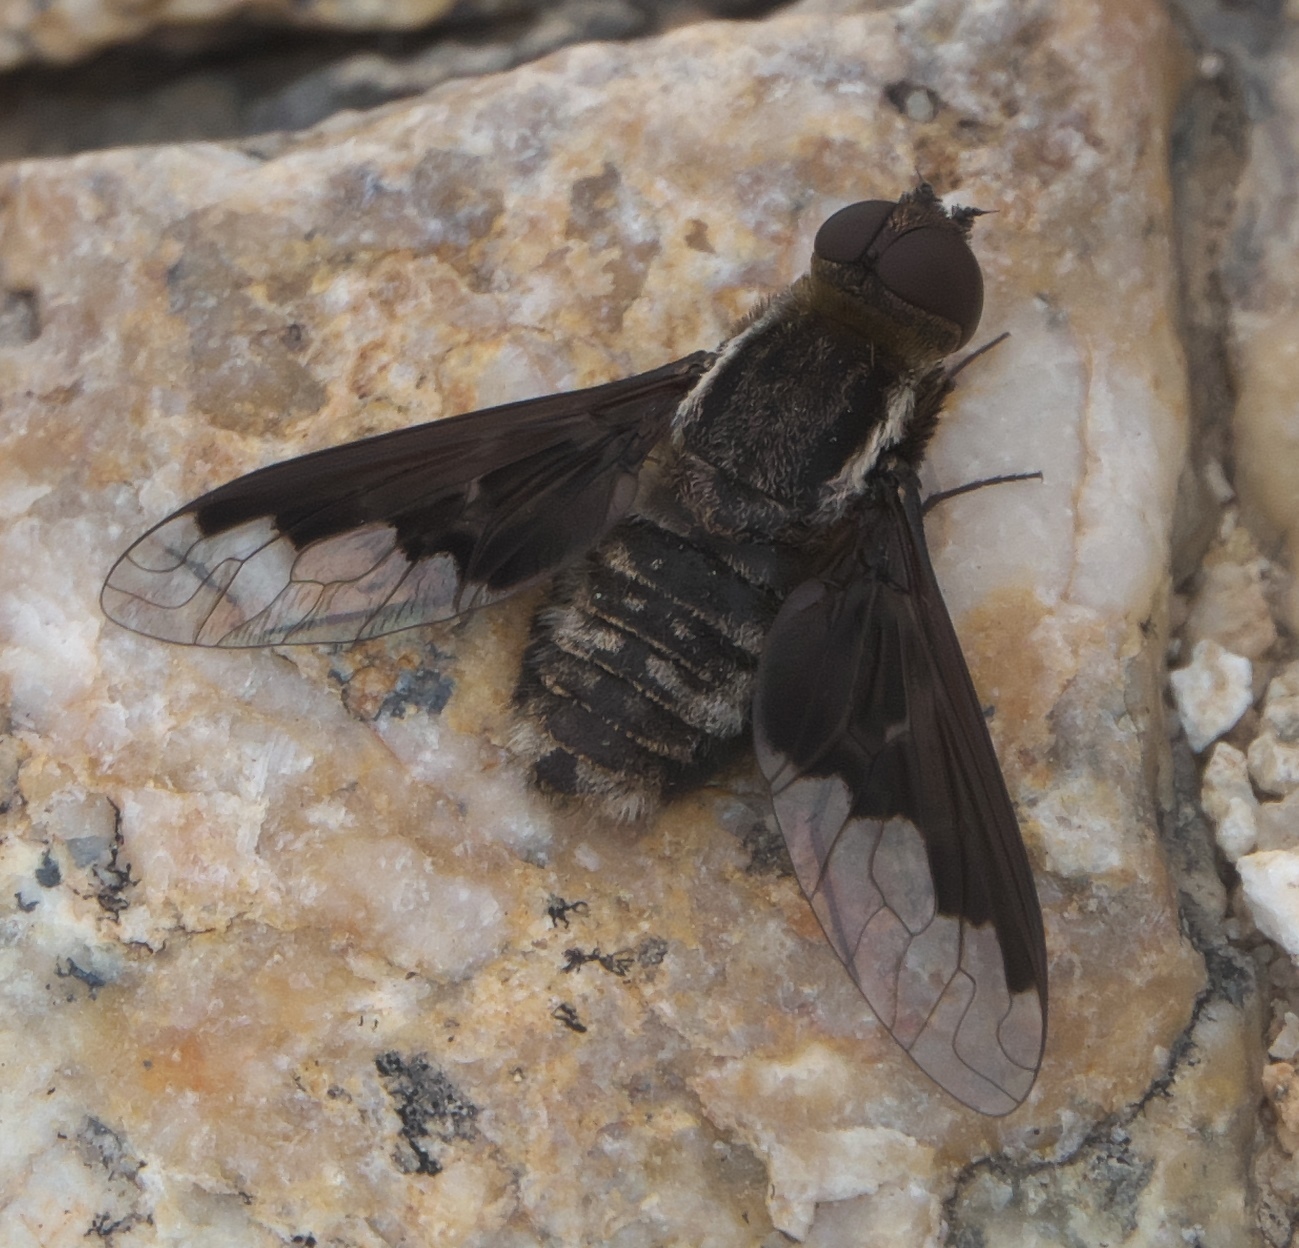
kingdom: Animalia
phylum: Arthropoda
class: Insecta
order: Diptera
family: Bombyliidae
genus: Hemipenthes
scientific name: Hemipenthes seminiger
